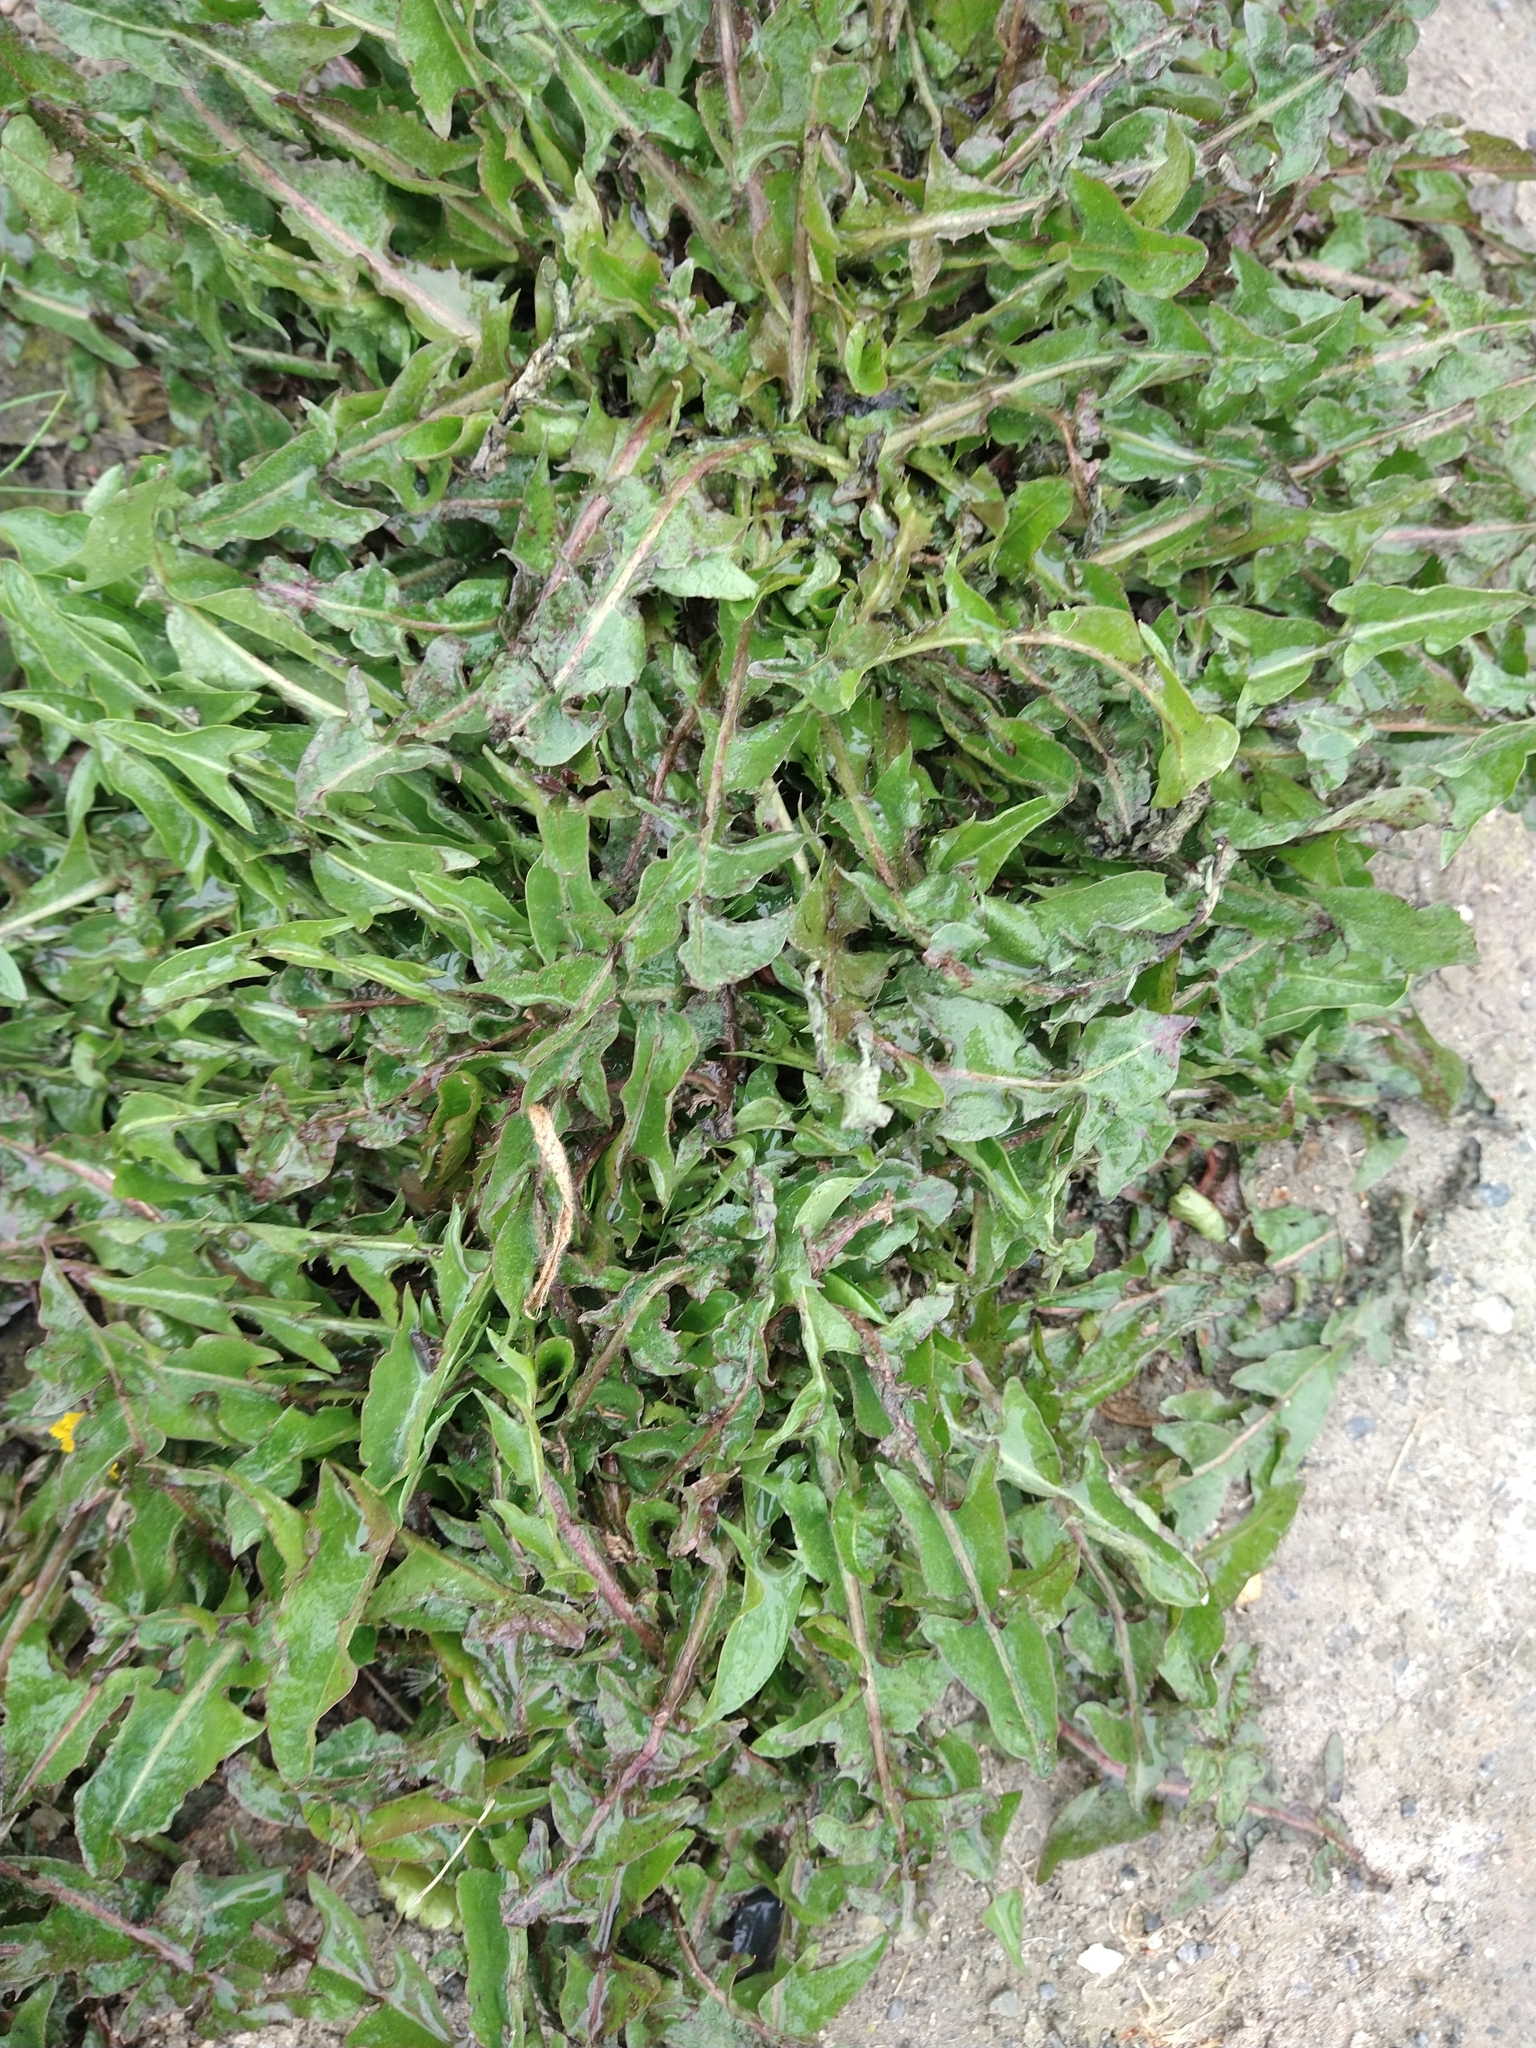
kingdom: Plantae
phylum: Tracheophyta
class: Magnoliopsida
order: Asterales
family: Asteraceae
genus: Taraxacum
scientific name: Taraxacum officinale
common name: Common dandelion
